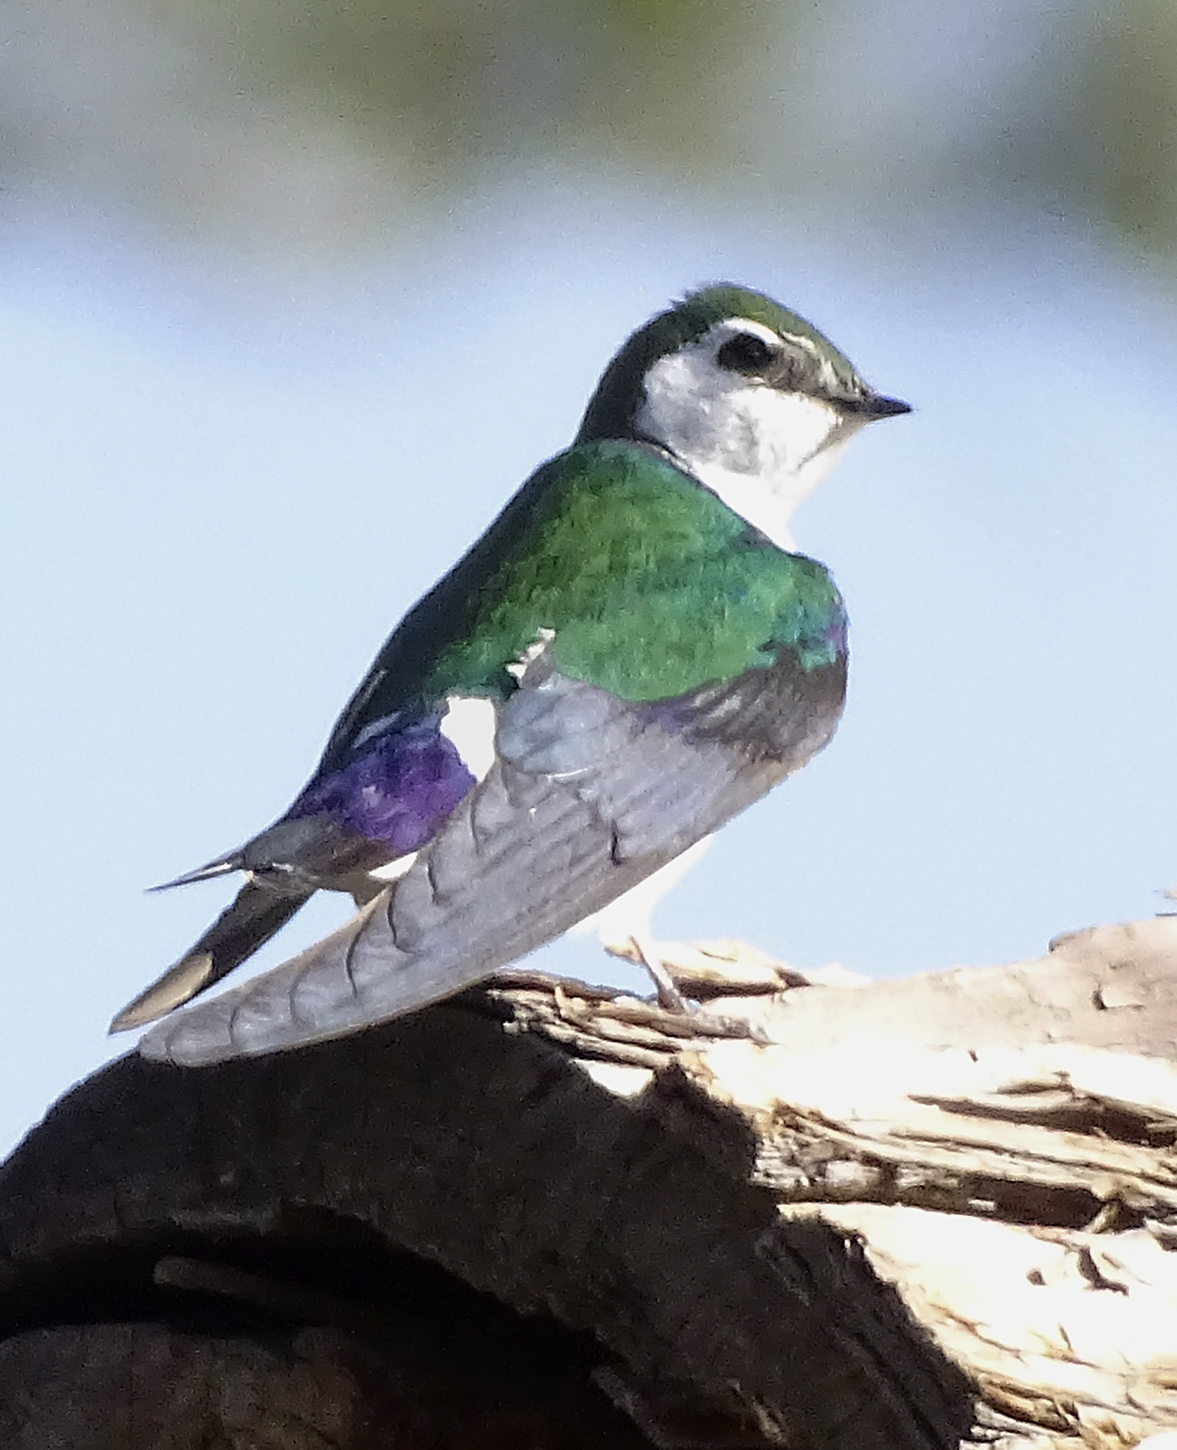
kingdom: Animalia
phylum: Chordata
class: Aves
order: Passeriformes
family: Hirundinidae
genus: Tachycineta
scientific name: Tachycineta thalassina
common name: Violet-green swallow
